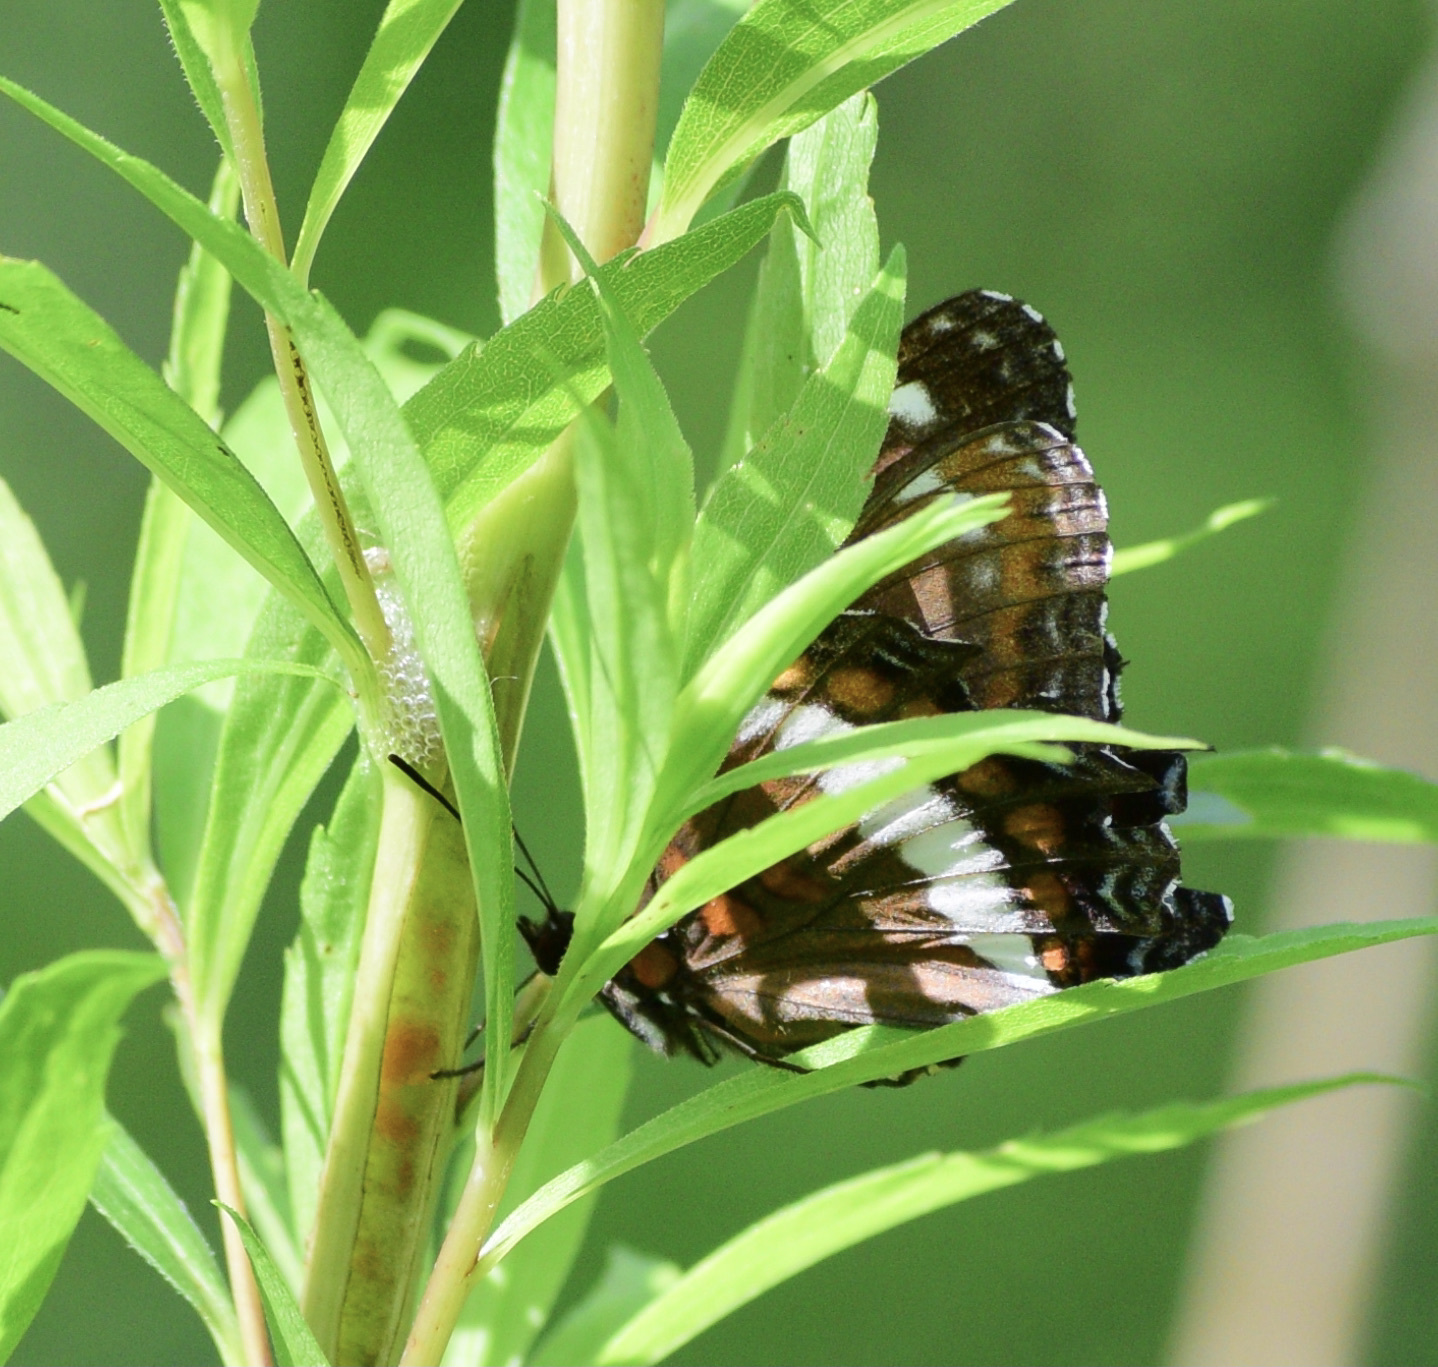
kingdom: Animalia
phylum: Arthropoda
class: Insecta
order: Lepidoptera
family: Nymphalidae
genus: Limenitis
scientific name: Limenitis arthemis
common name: Red-spotted admiral
